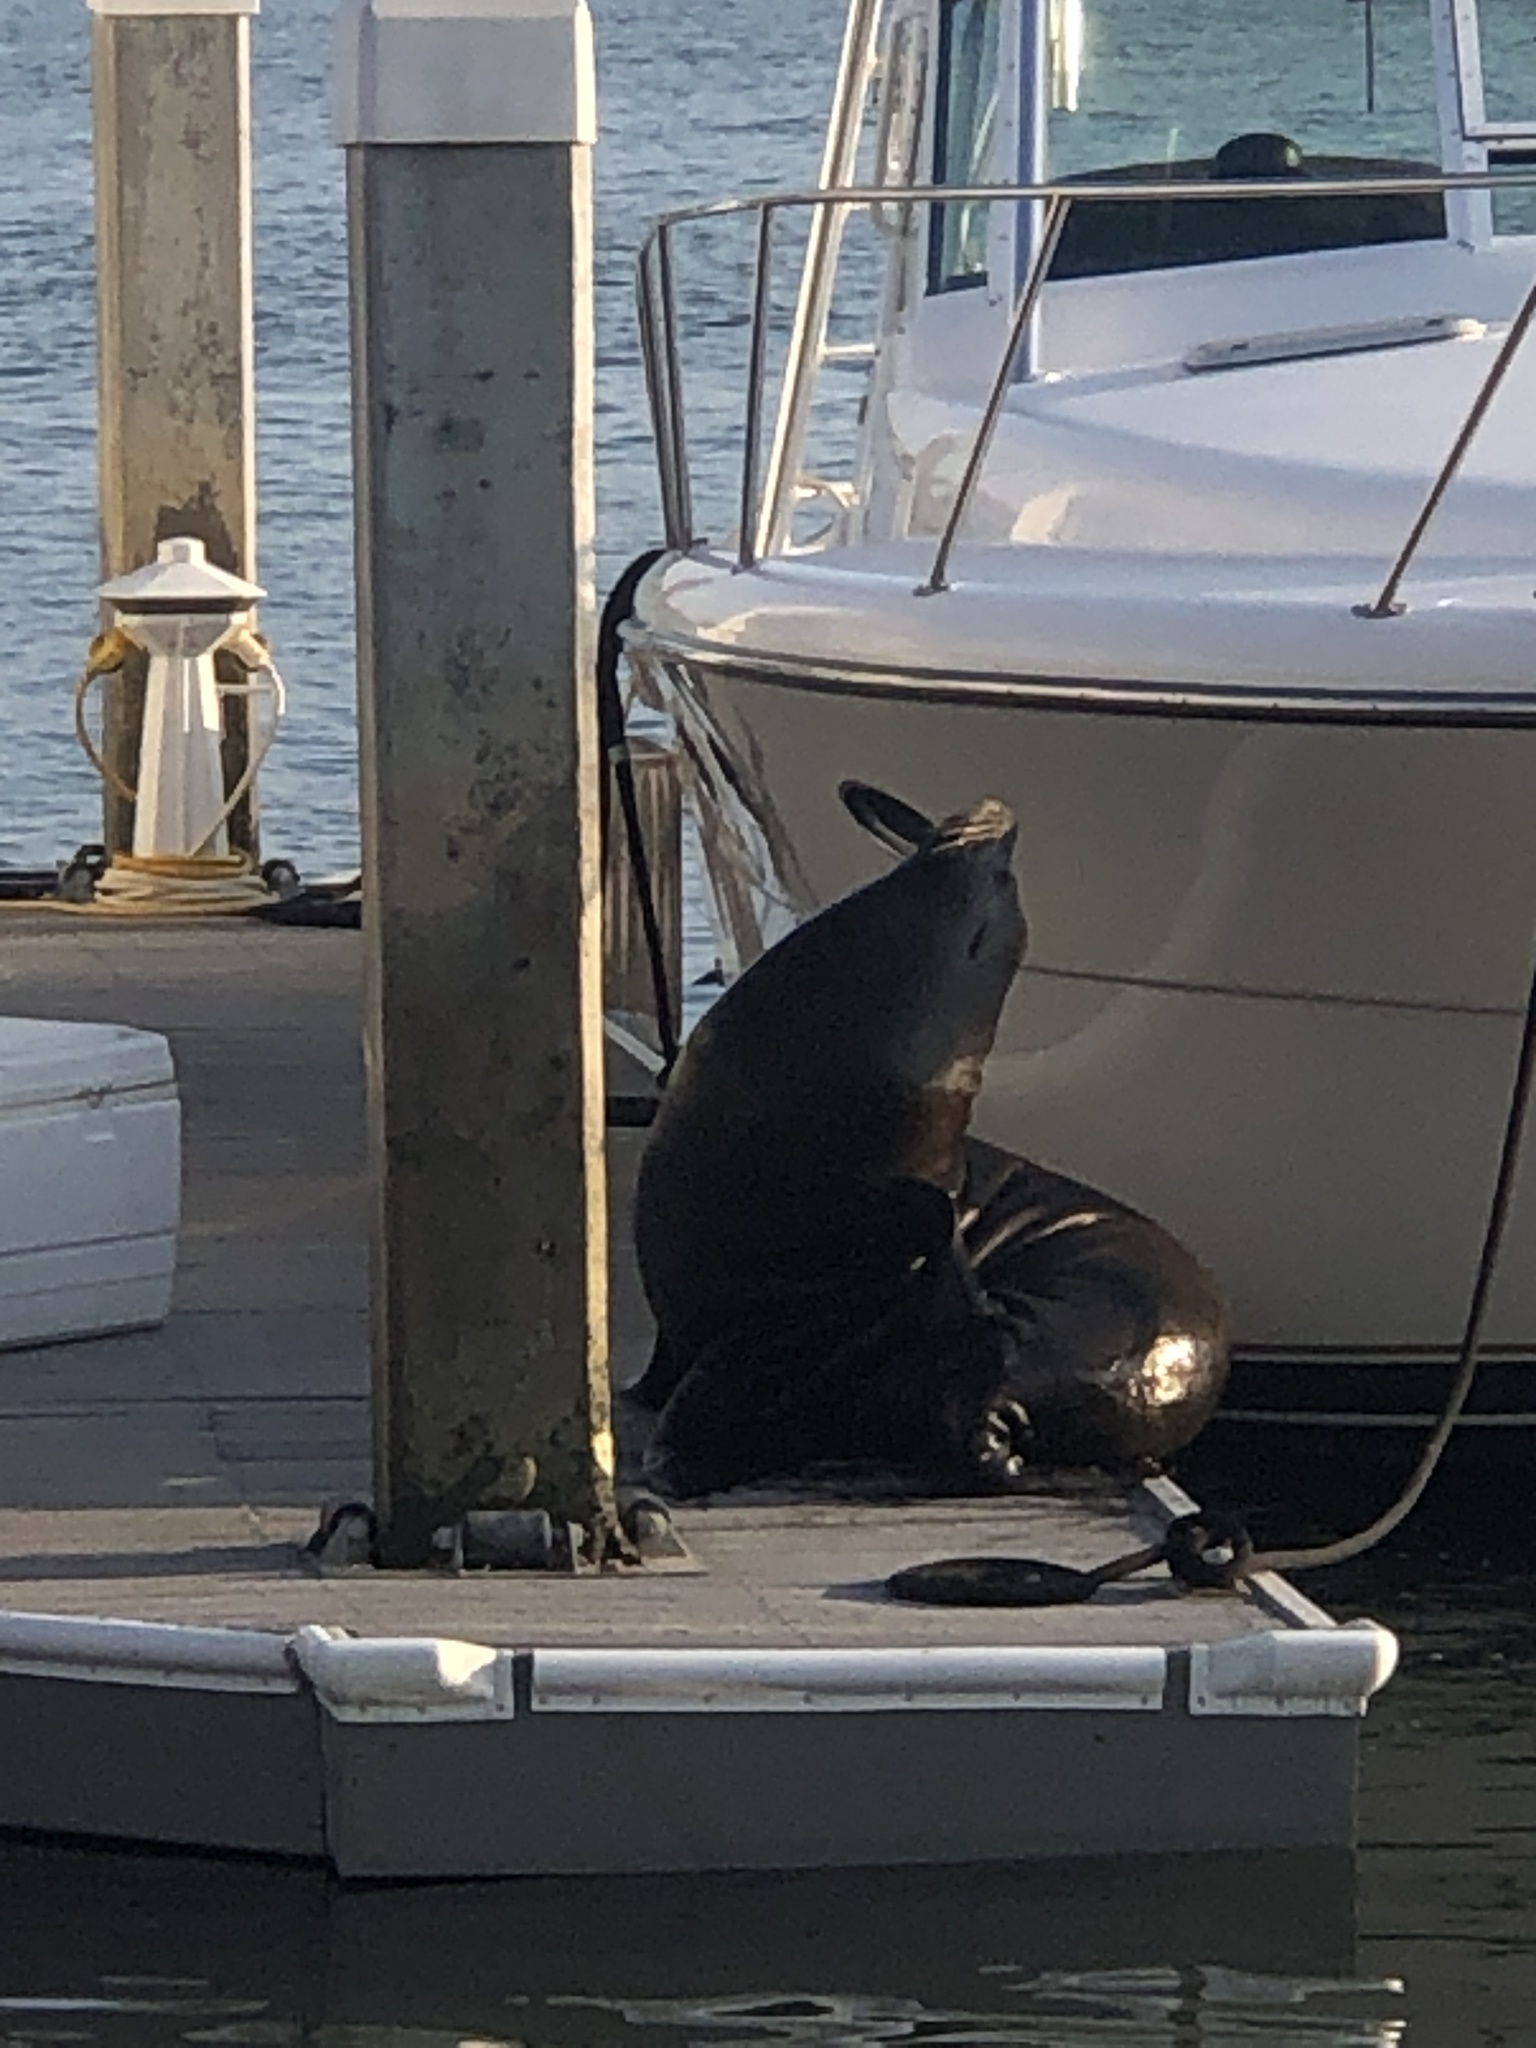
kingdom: Animalia
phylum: Chordata
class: Mammalia
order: Carnivora
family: Otariidae
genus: Zalophus
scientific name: Zalophus californianus
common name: California sea lion
